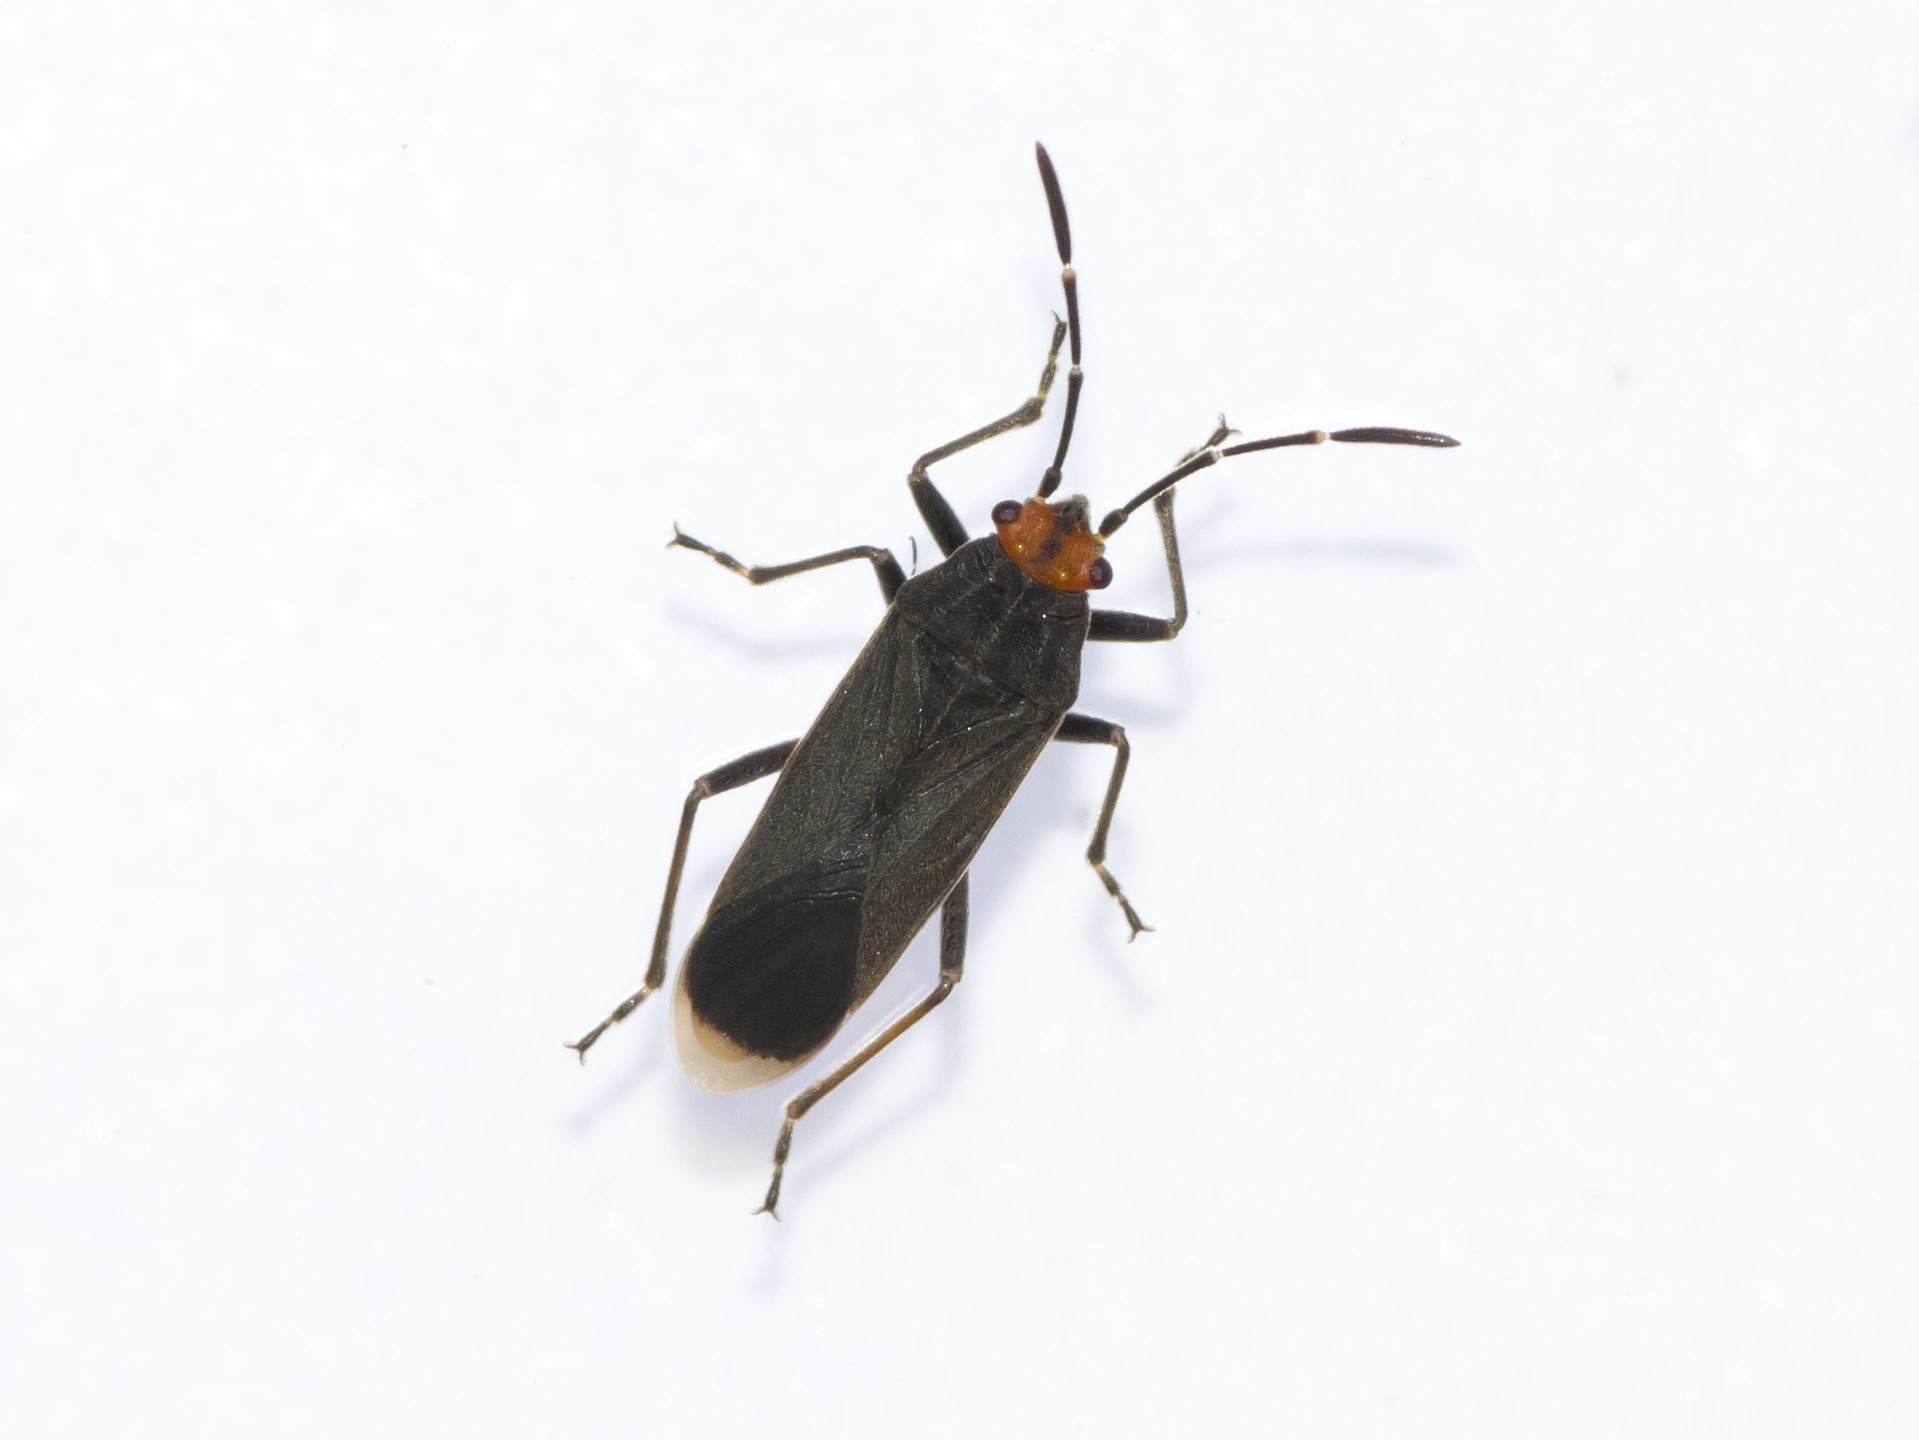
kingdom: Animalia
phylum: Arthropoda
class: Insecta
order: Hemiptera
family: Lygaeidae
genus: Acroleucus
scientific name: Acroleucus marinoi
